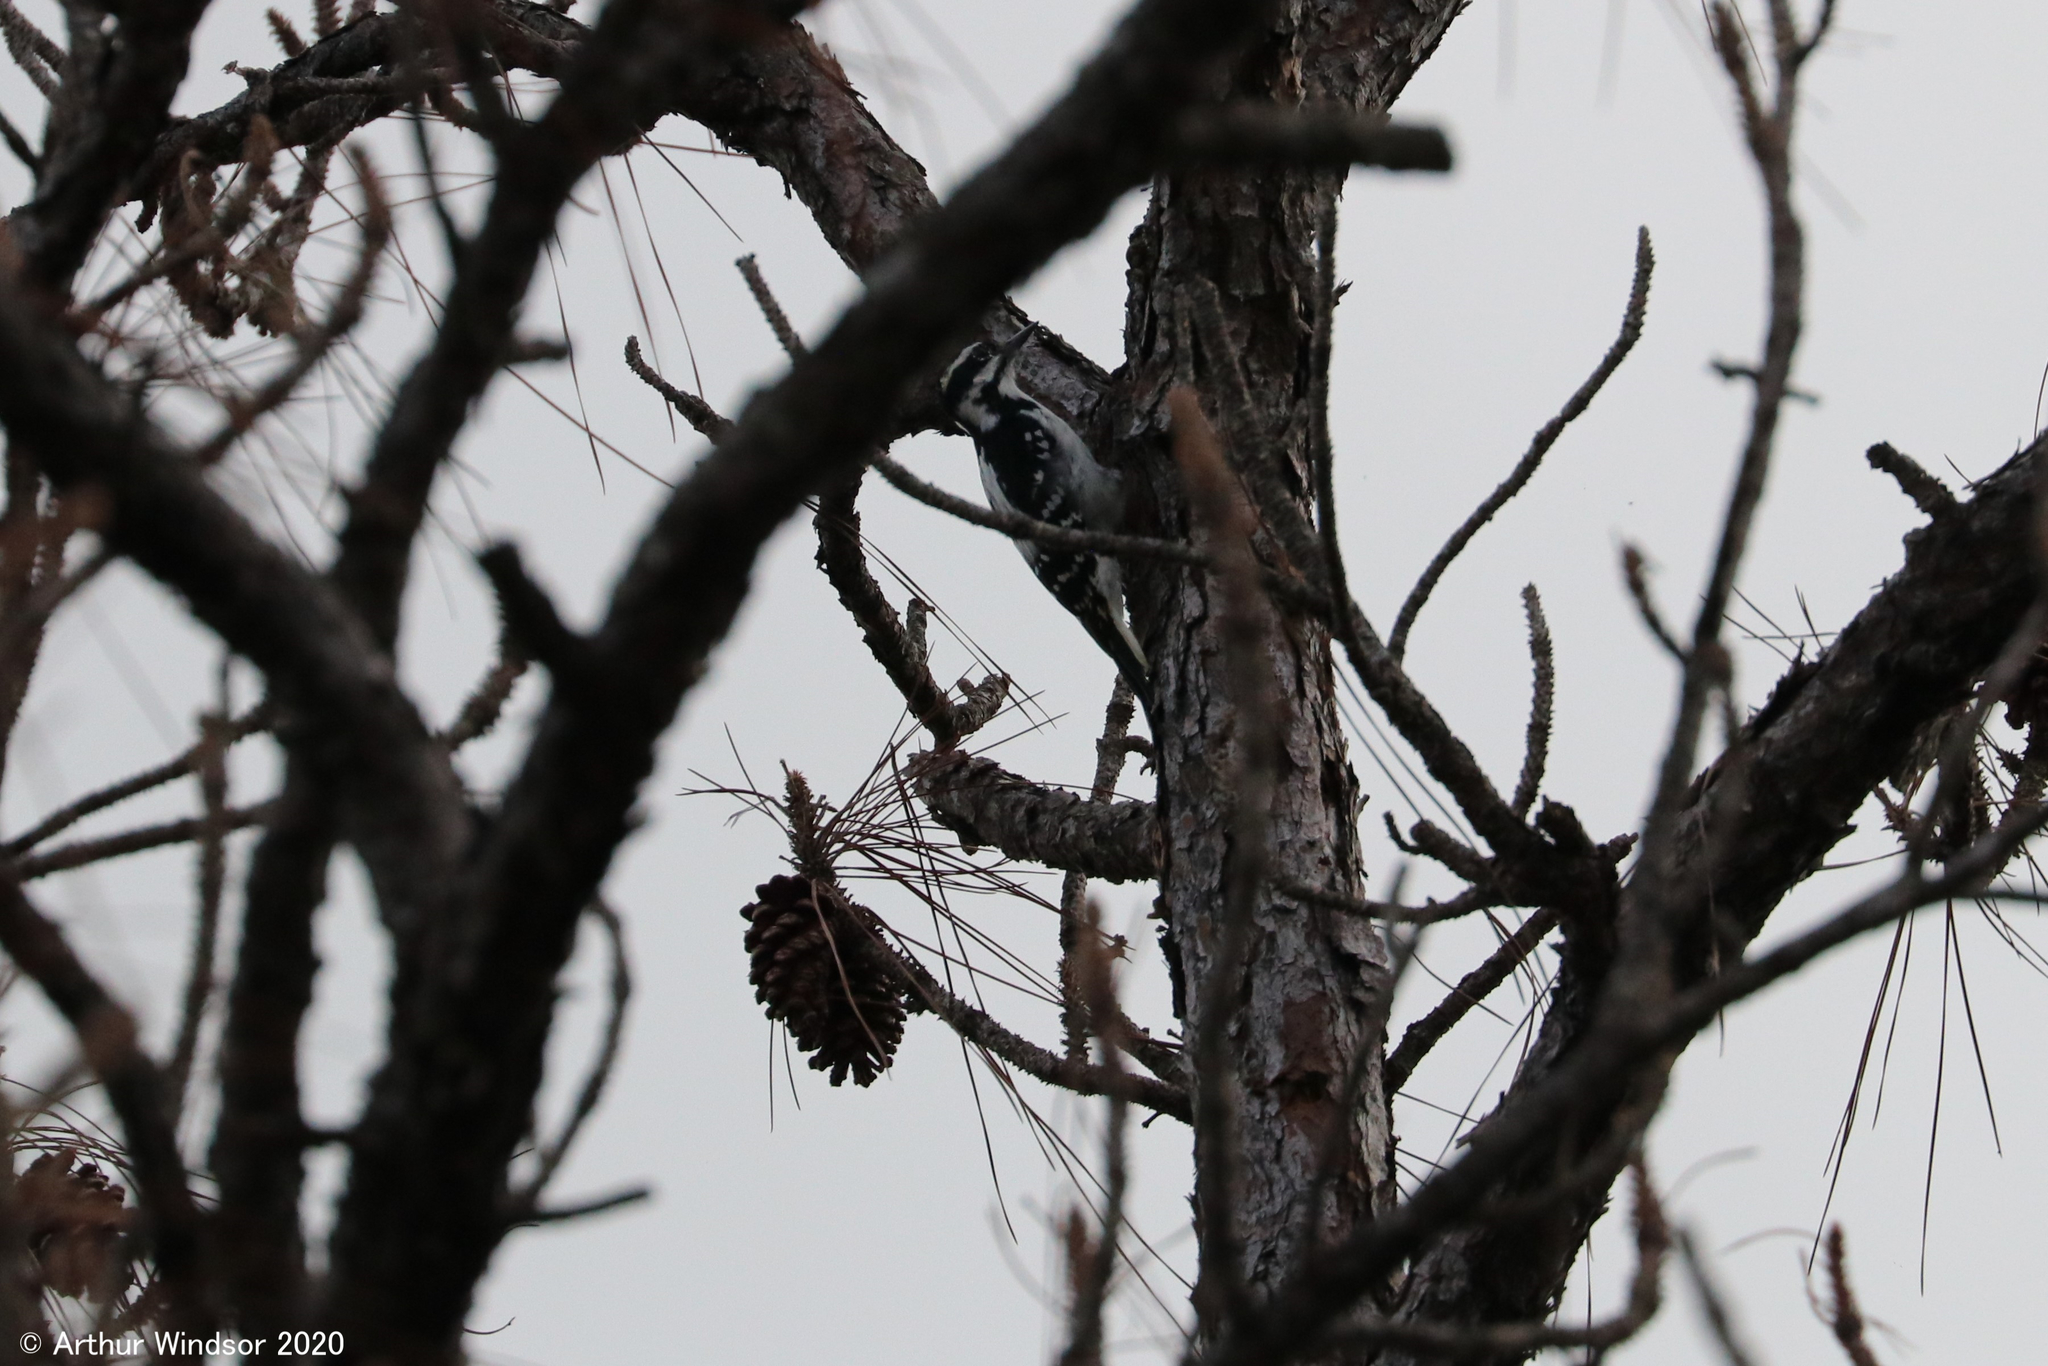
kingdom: Animalia
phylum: Chordata
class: Aves
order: Piciformes
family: Picidae
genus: Dryobates
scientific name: Dryobates pubescens
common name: Downy woodpecker
